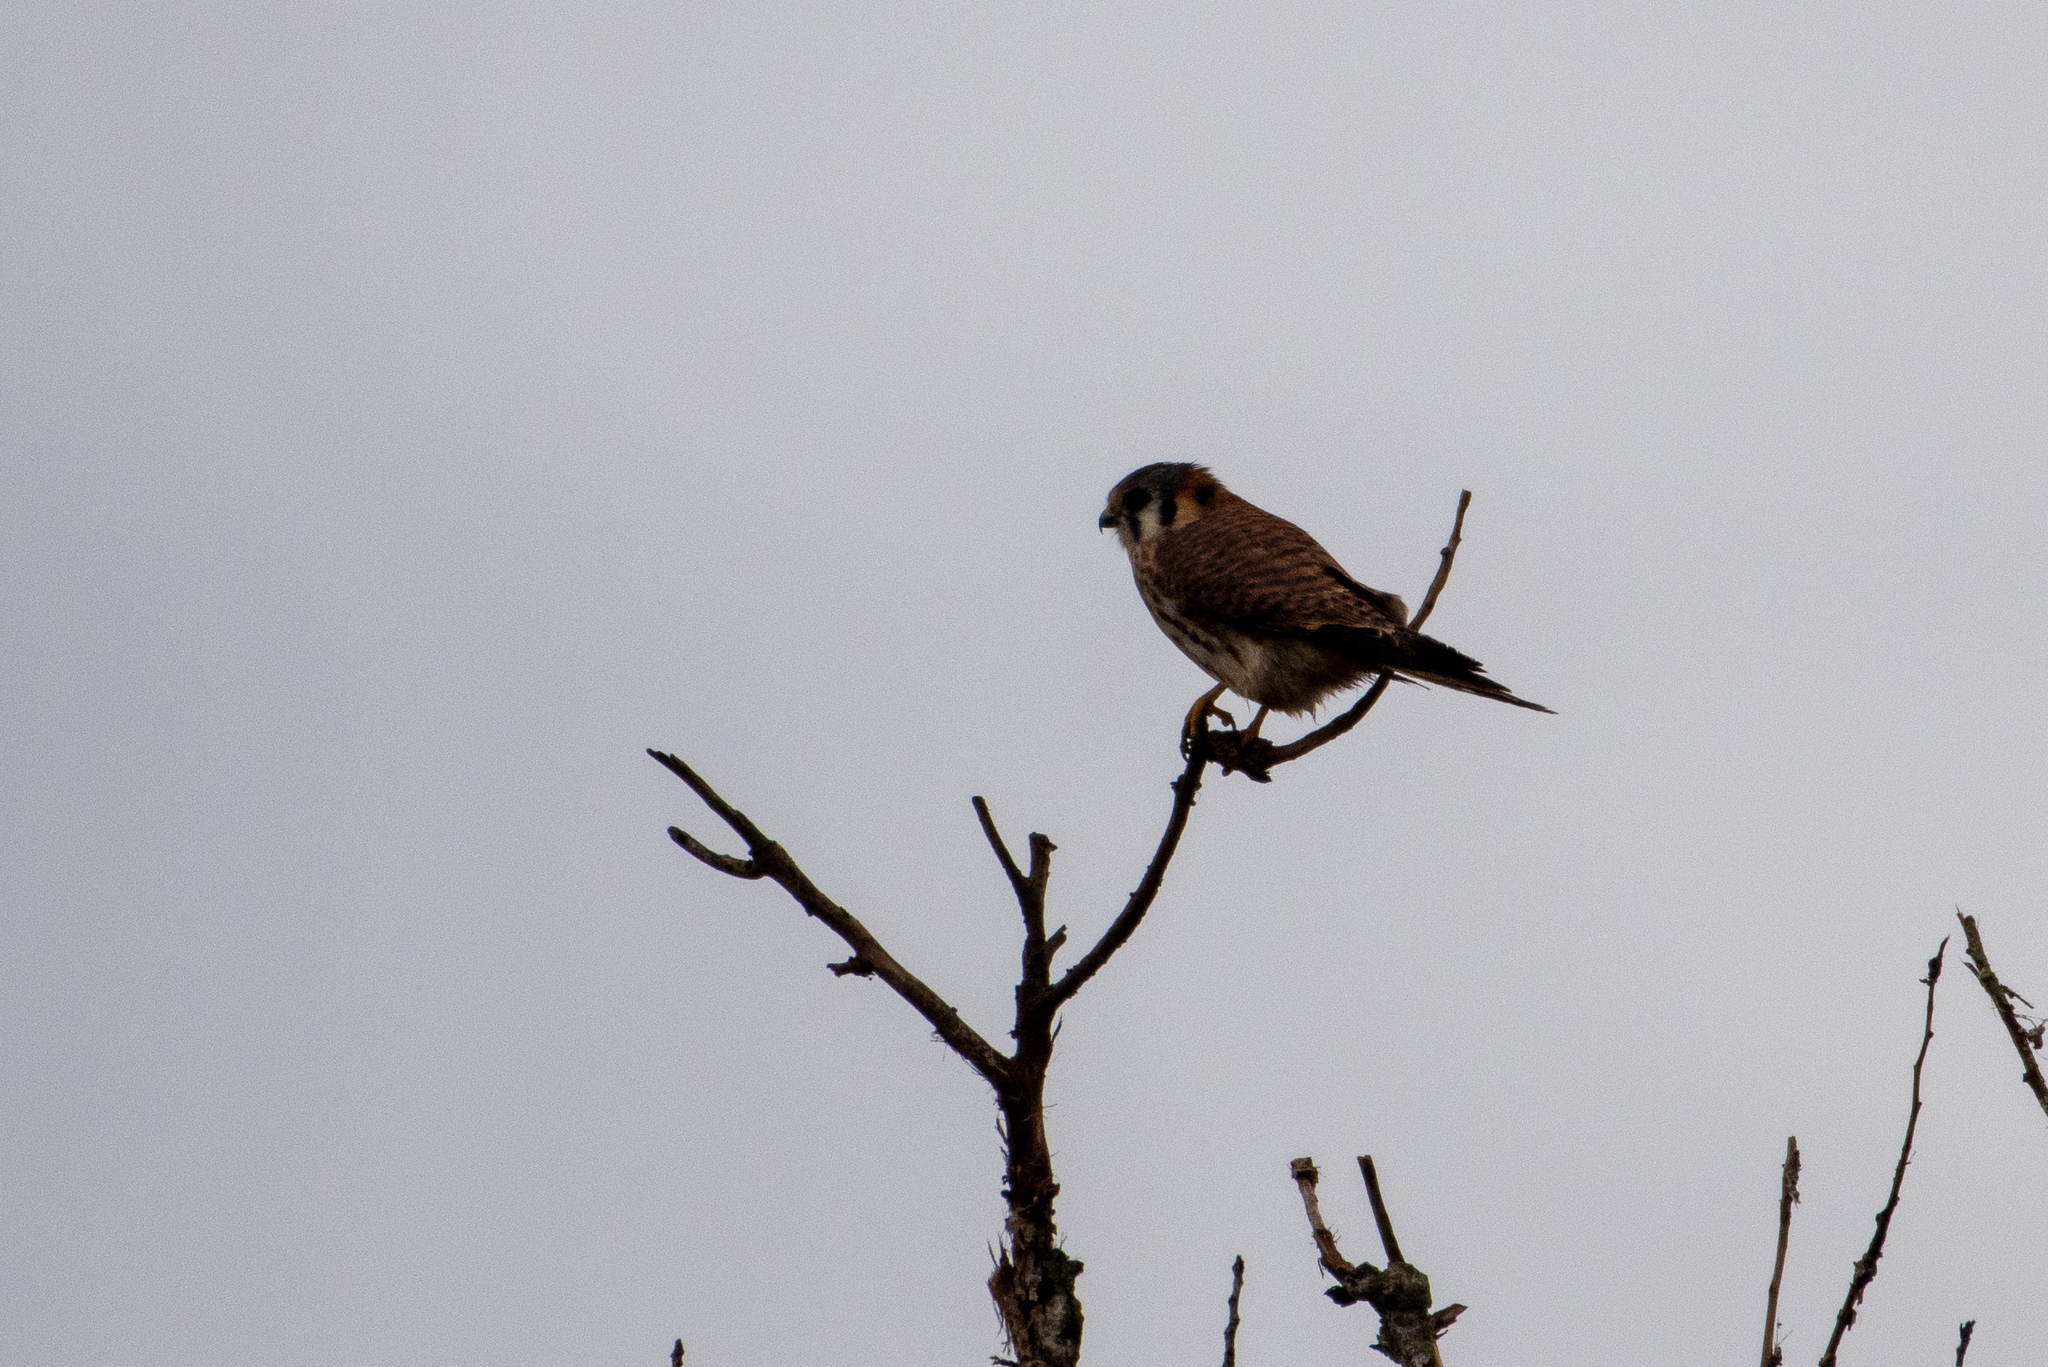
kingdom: Animalia
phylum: Chordata
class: Aves
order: Falconiformes
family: Falconidae
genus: Falco
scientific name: Falco sparverius
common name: American kestrel
